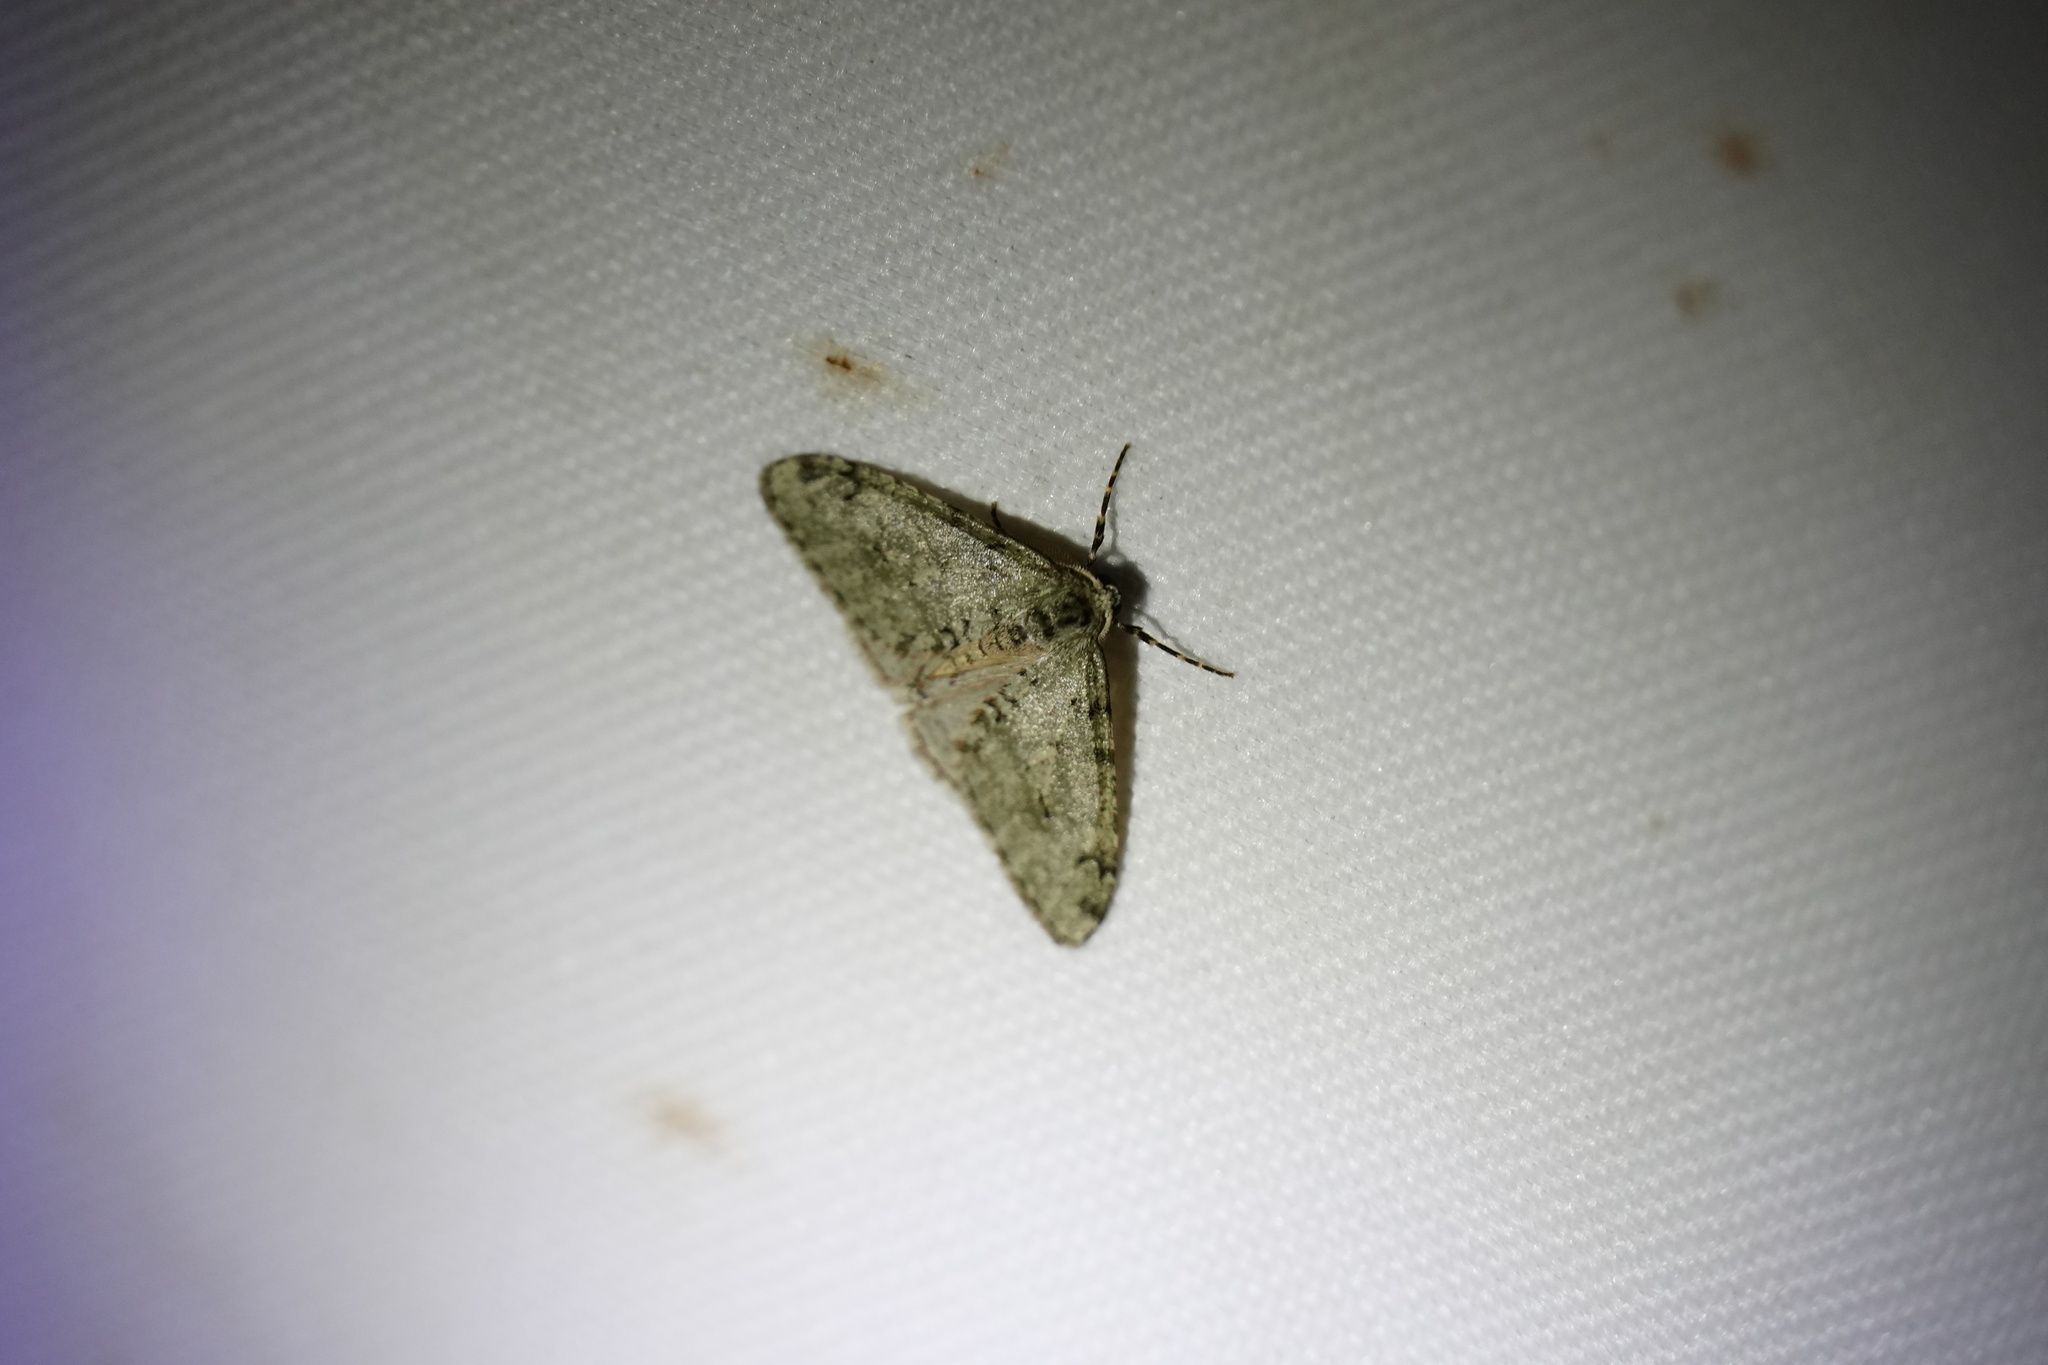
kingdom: Animalia
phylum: Arthropoda
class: Insecta
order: Lepidoptera
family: Geometridae
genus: Phigalia
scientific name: Phigalia strigataria
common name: Small phigalia
